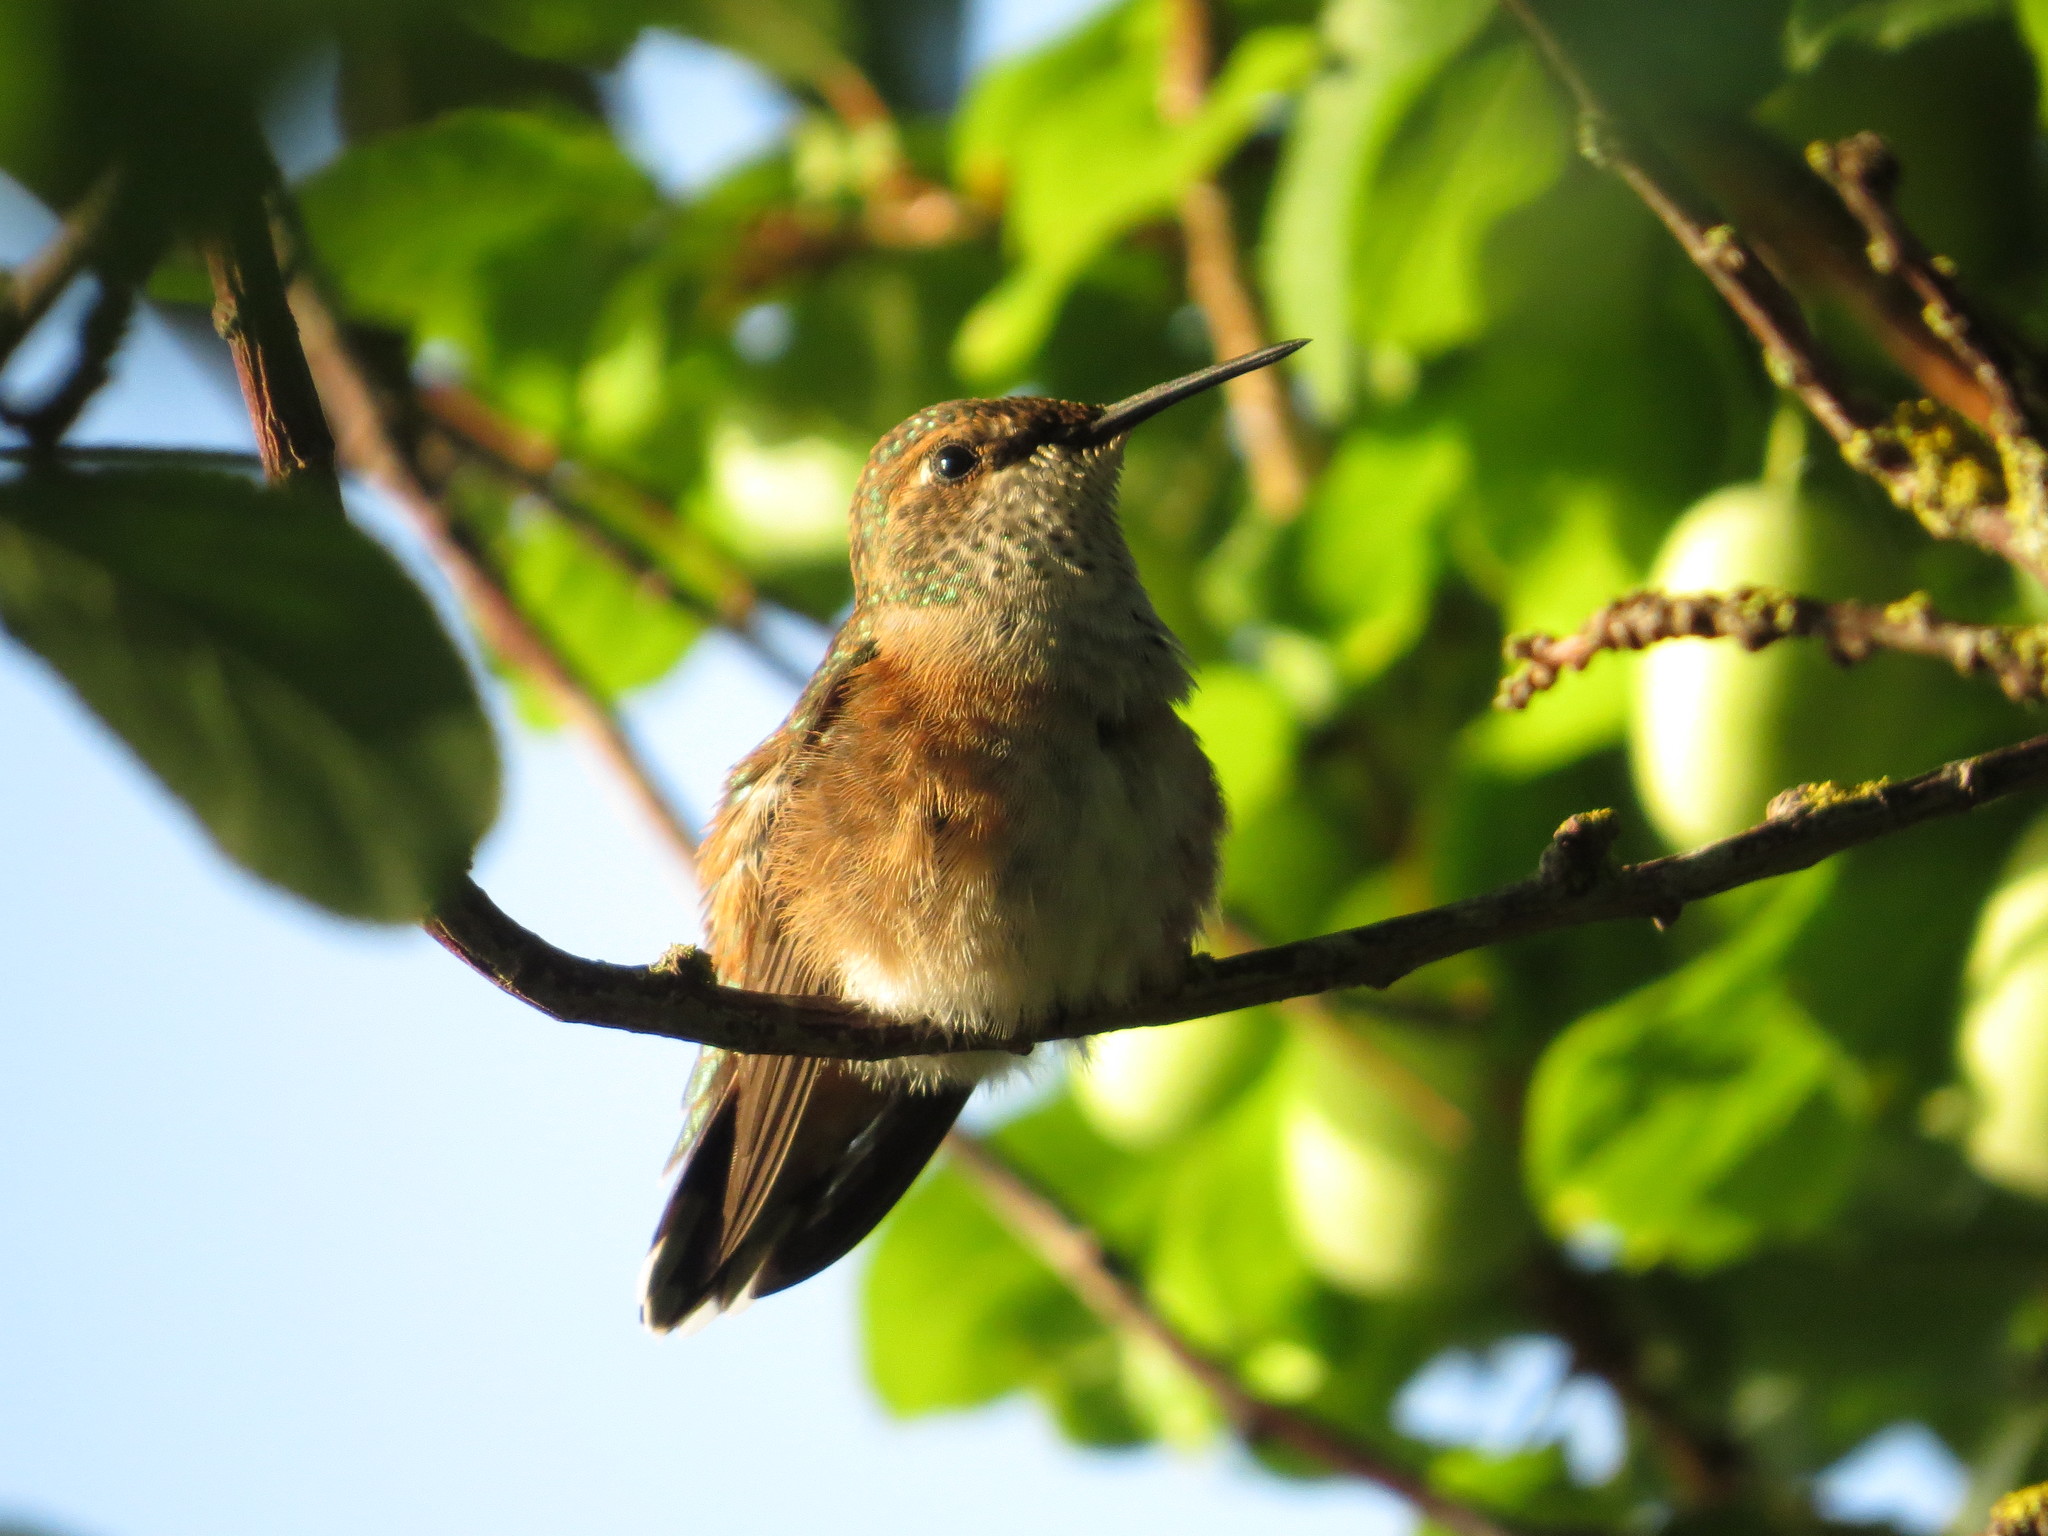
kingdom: Animalia
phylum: Chordata
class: Aves
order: Apodiformes
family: Trochilidae
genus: Selasphorus
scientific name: Selasphorus rufus
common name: Rufous hummingbird
